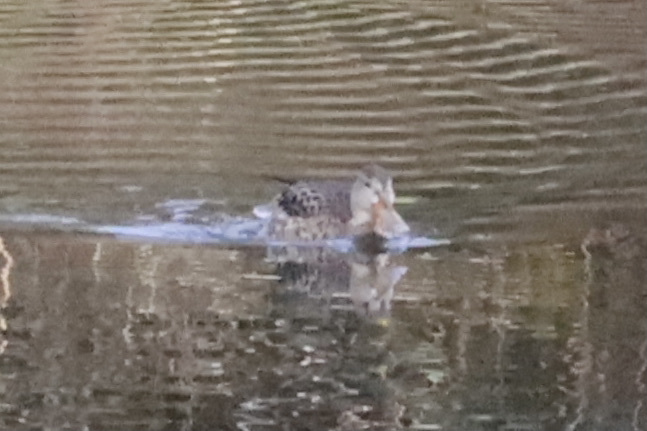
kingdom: Animalia
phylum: Chordata
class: Aves
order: Anseriformes
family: Anatidae
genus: Spatula
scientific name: Spatula clypeata
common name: Northern shoveler
